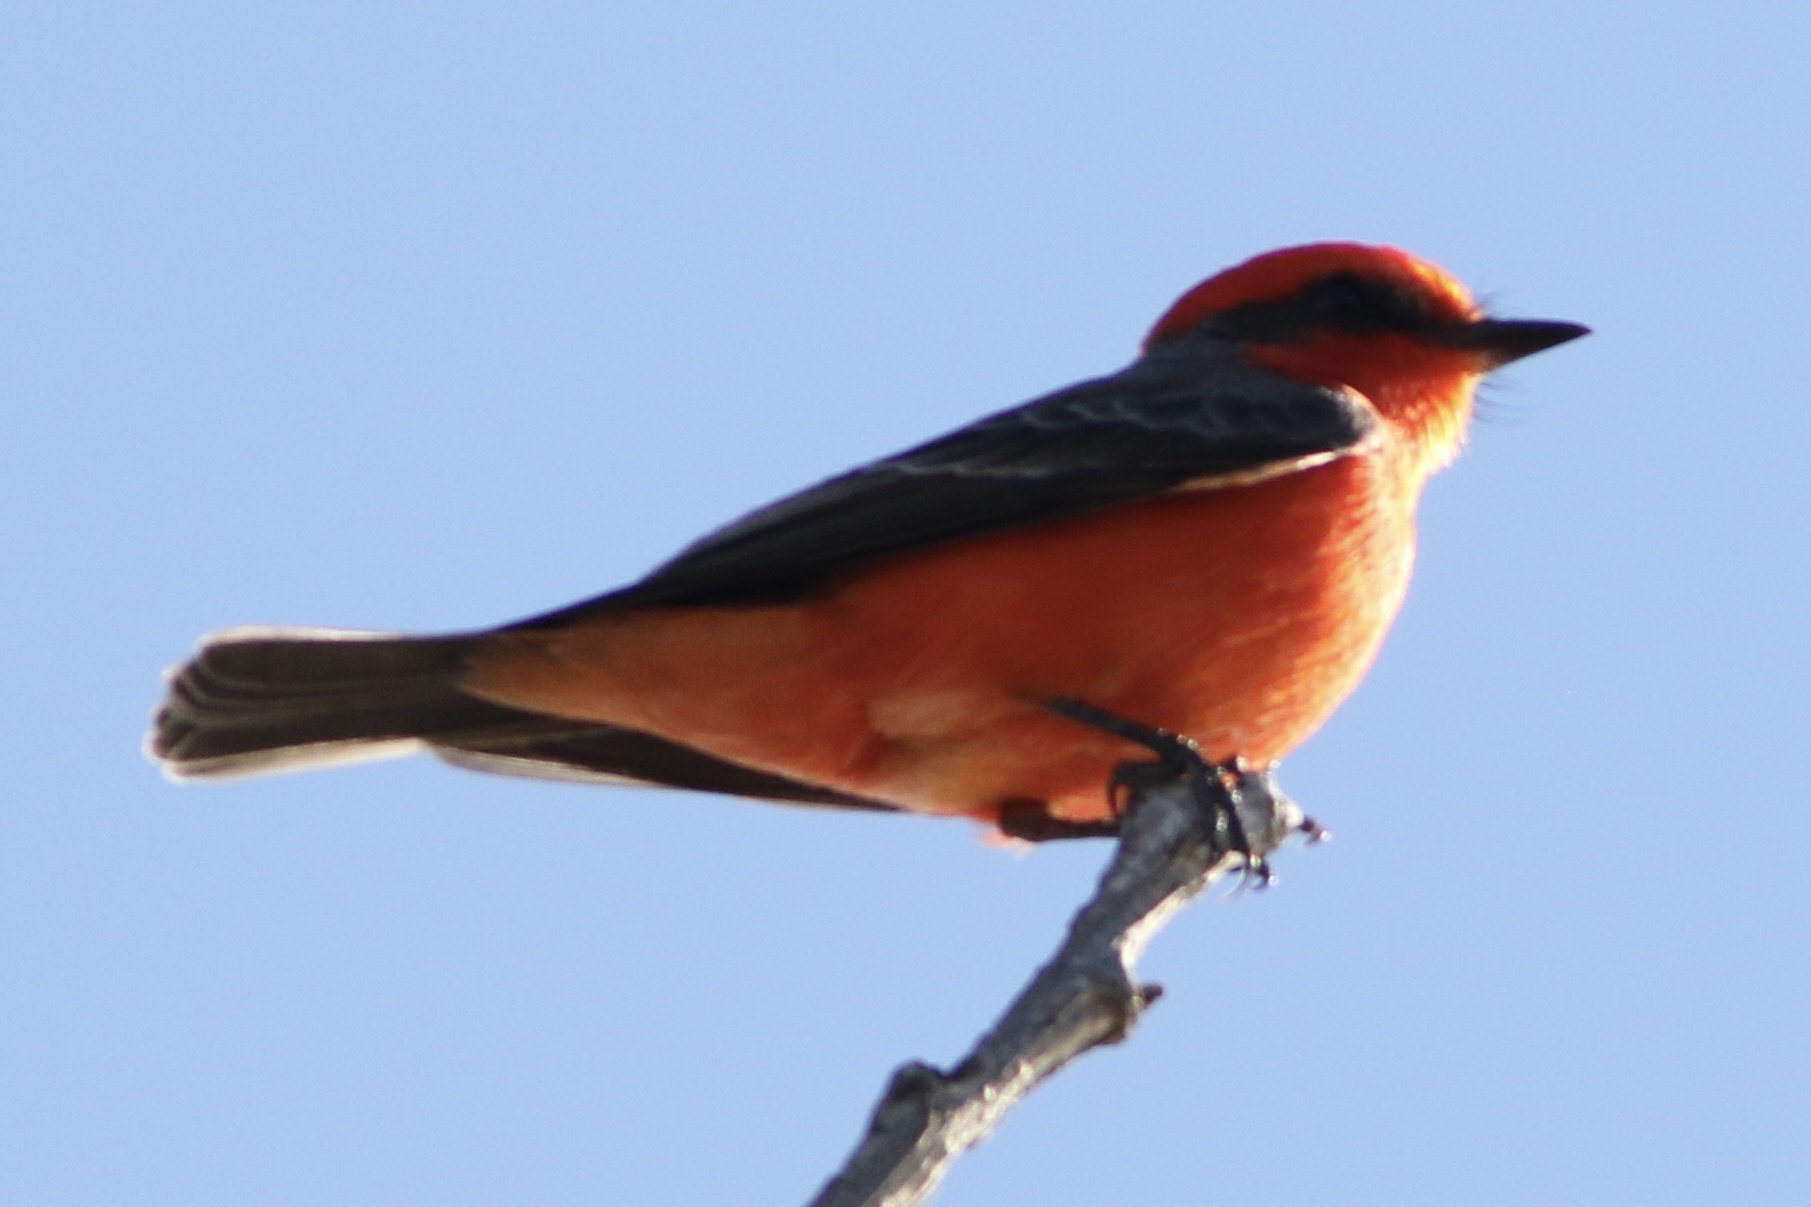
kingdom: Animalia
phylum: Chordata
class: Aves
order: Passeriformes
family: Tyrannidae
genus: Pyrocephalus
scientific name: Pyrocephalus rubinus
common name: Vermilion flycatcher
